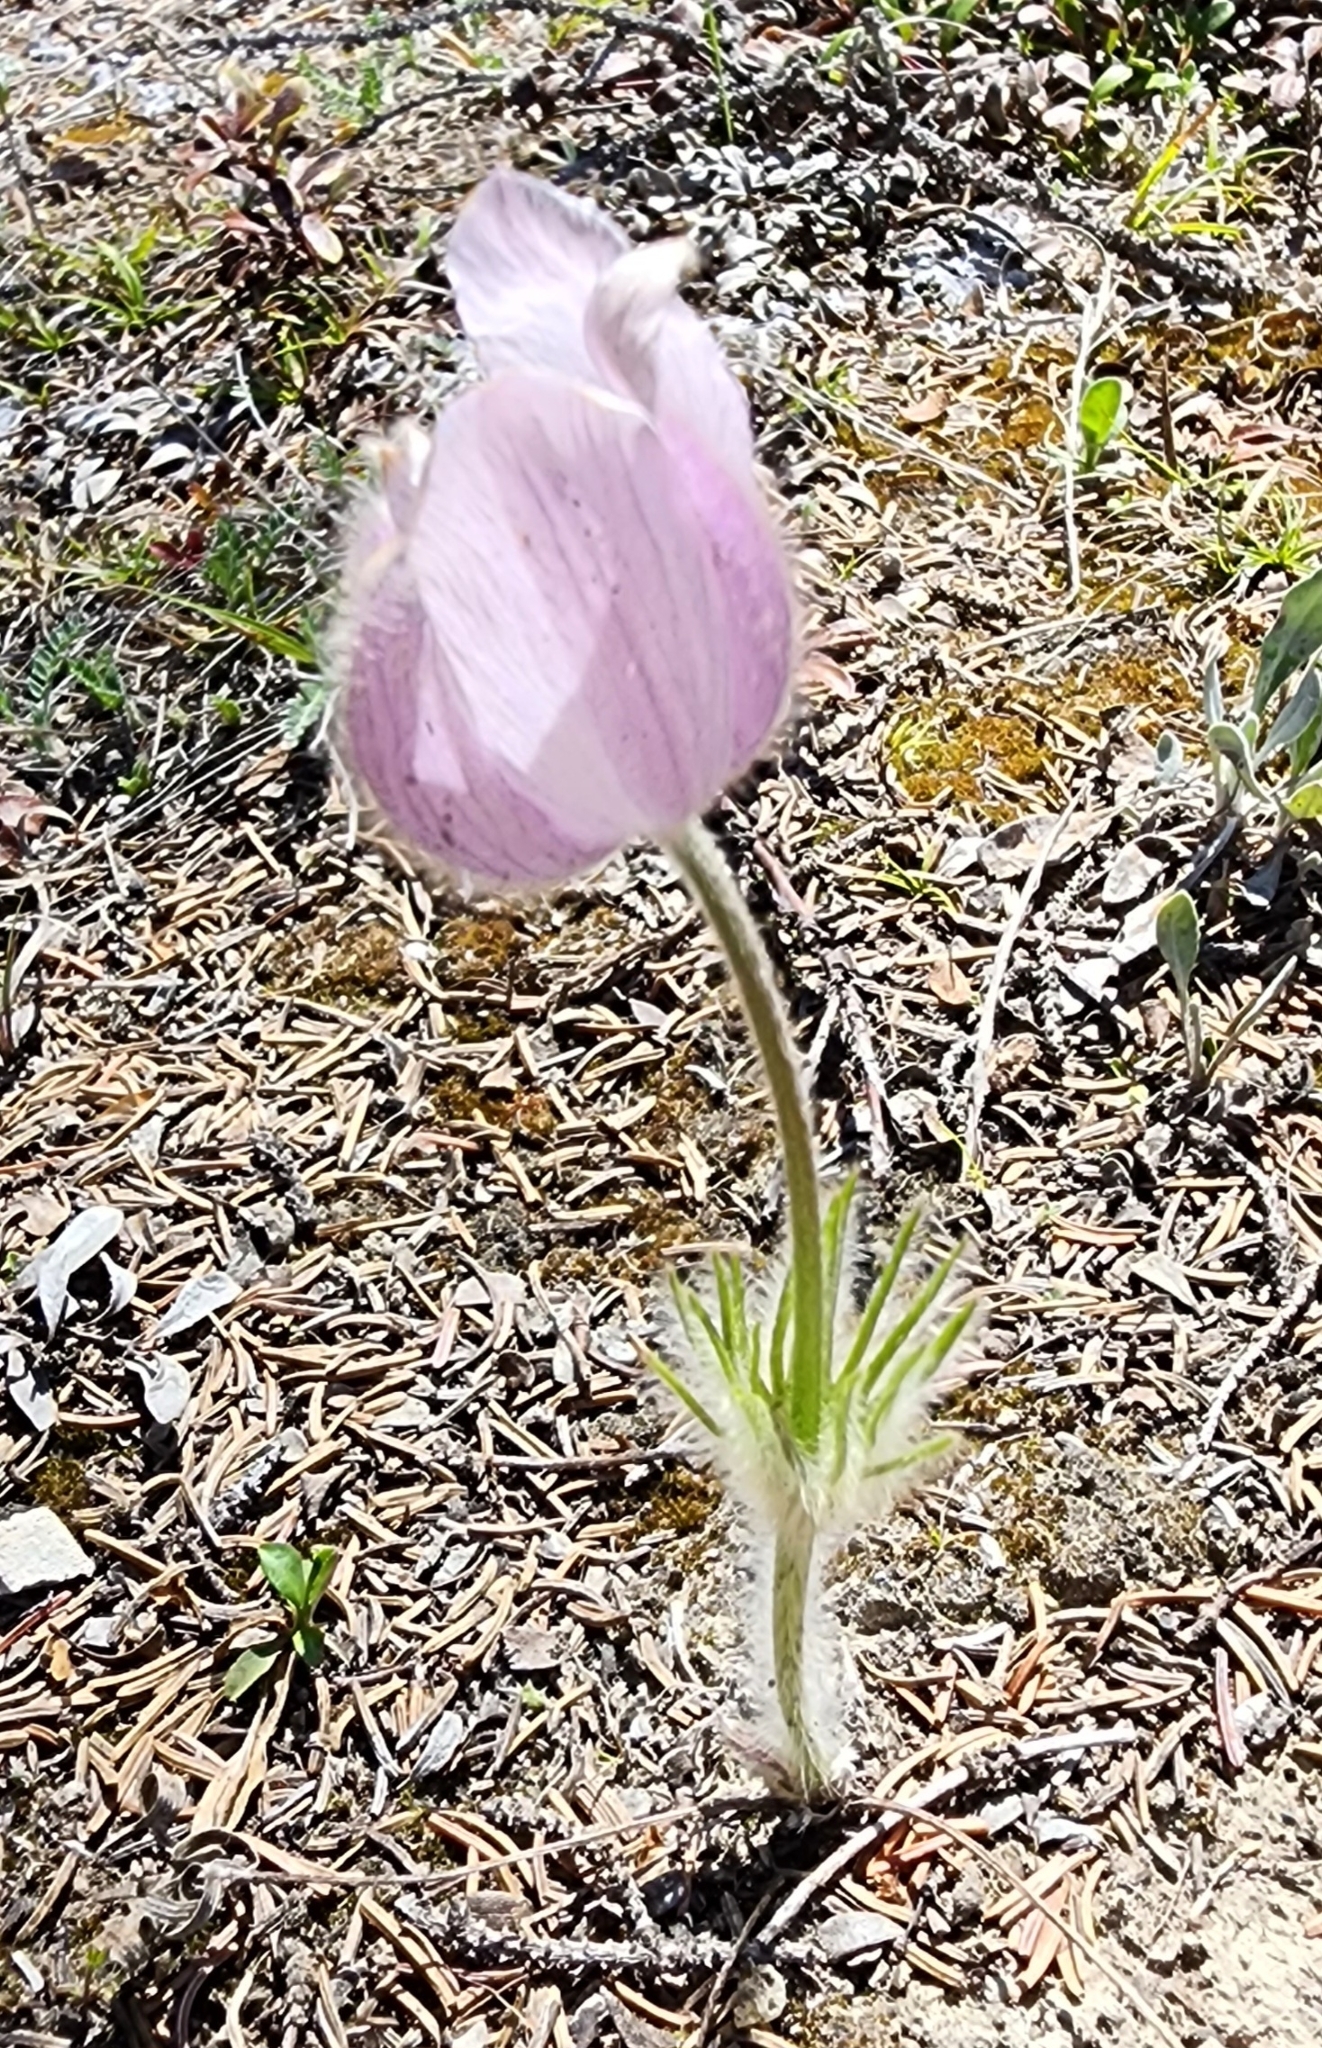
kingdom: Plantae
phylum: Tracheophyta
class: Magnoliopsida
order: Ranunculales
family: Ranunculaceae
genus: Pulsatilla
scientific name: Pulsatilla nuttalliana
